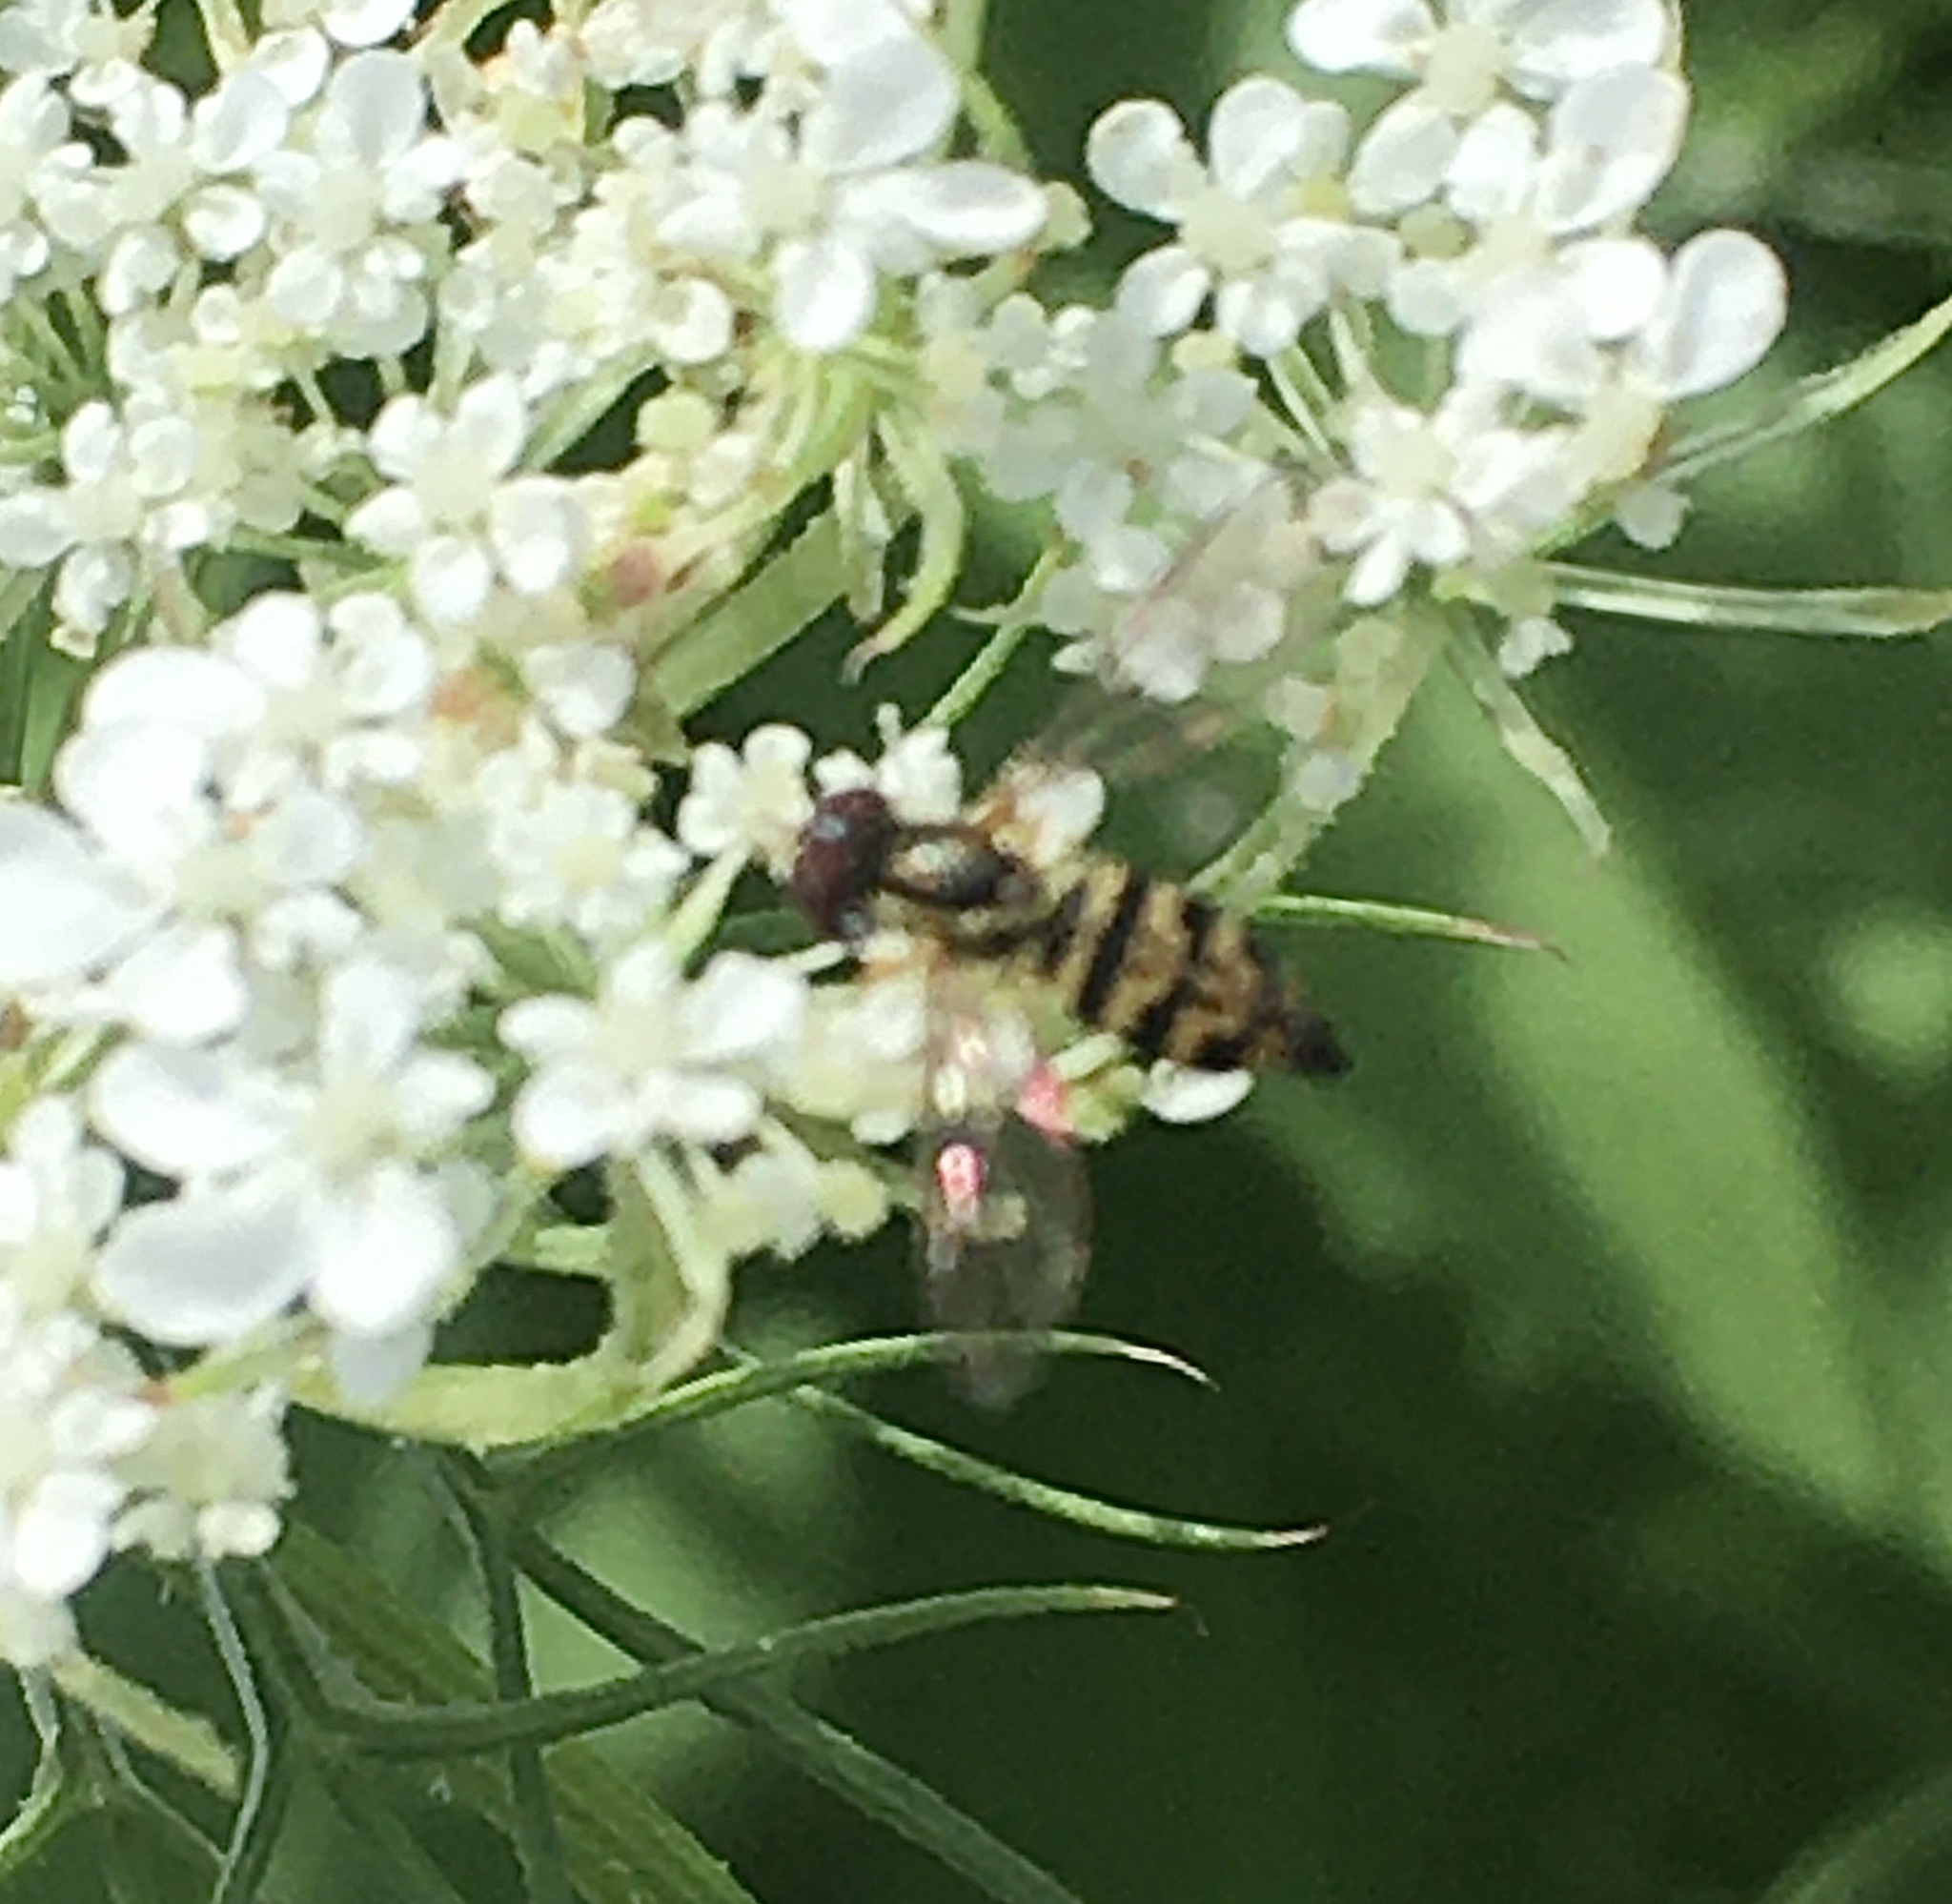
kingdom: Animalia
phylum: Arthropoda
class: Insecta
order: Diptera
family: Syrphidae
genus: Toxomerus
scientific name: Toxomerus geminatus
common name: Eastern calligrapher
